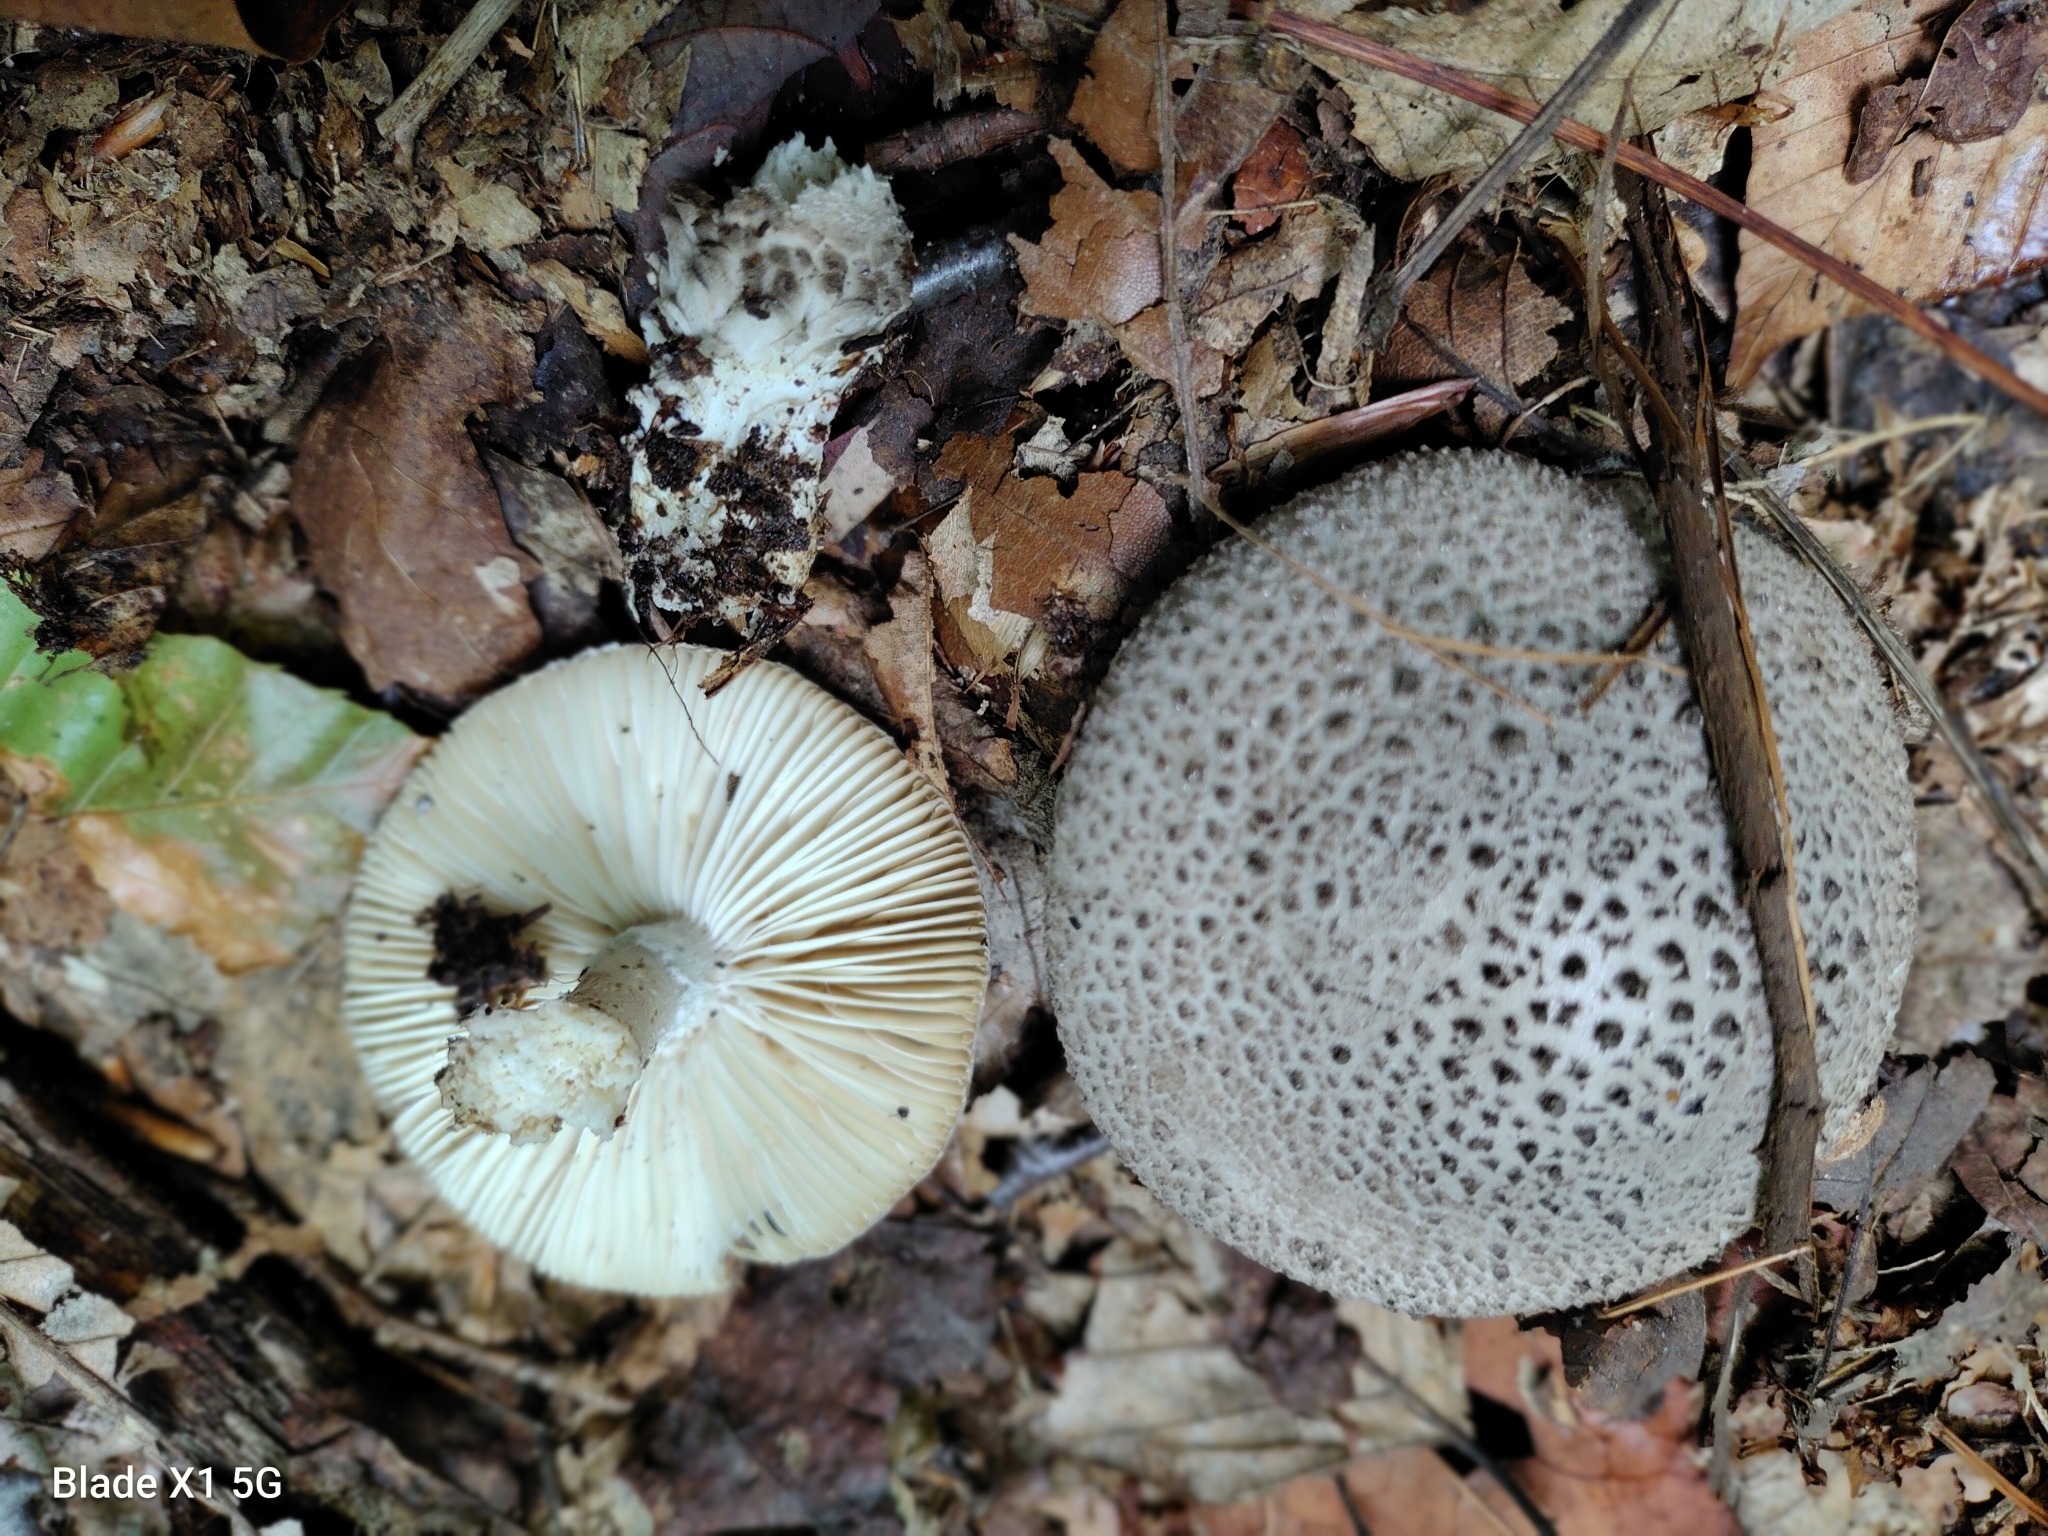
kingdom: Fungi
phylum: Basidiomycota
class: Agaricomycetes
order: Agaricales
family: Amanitaceae
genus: Amanita
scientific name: Amanita onusta
